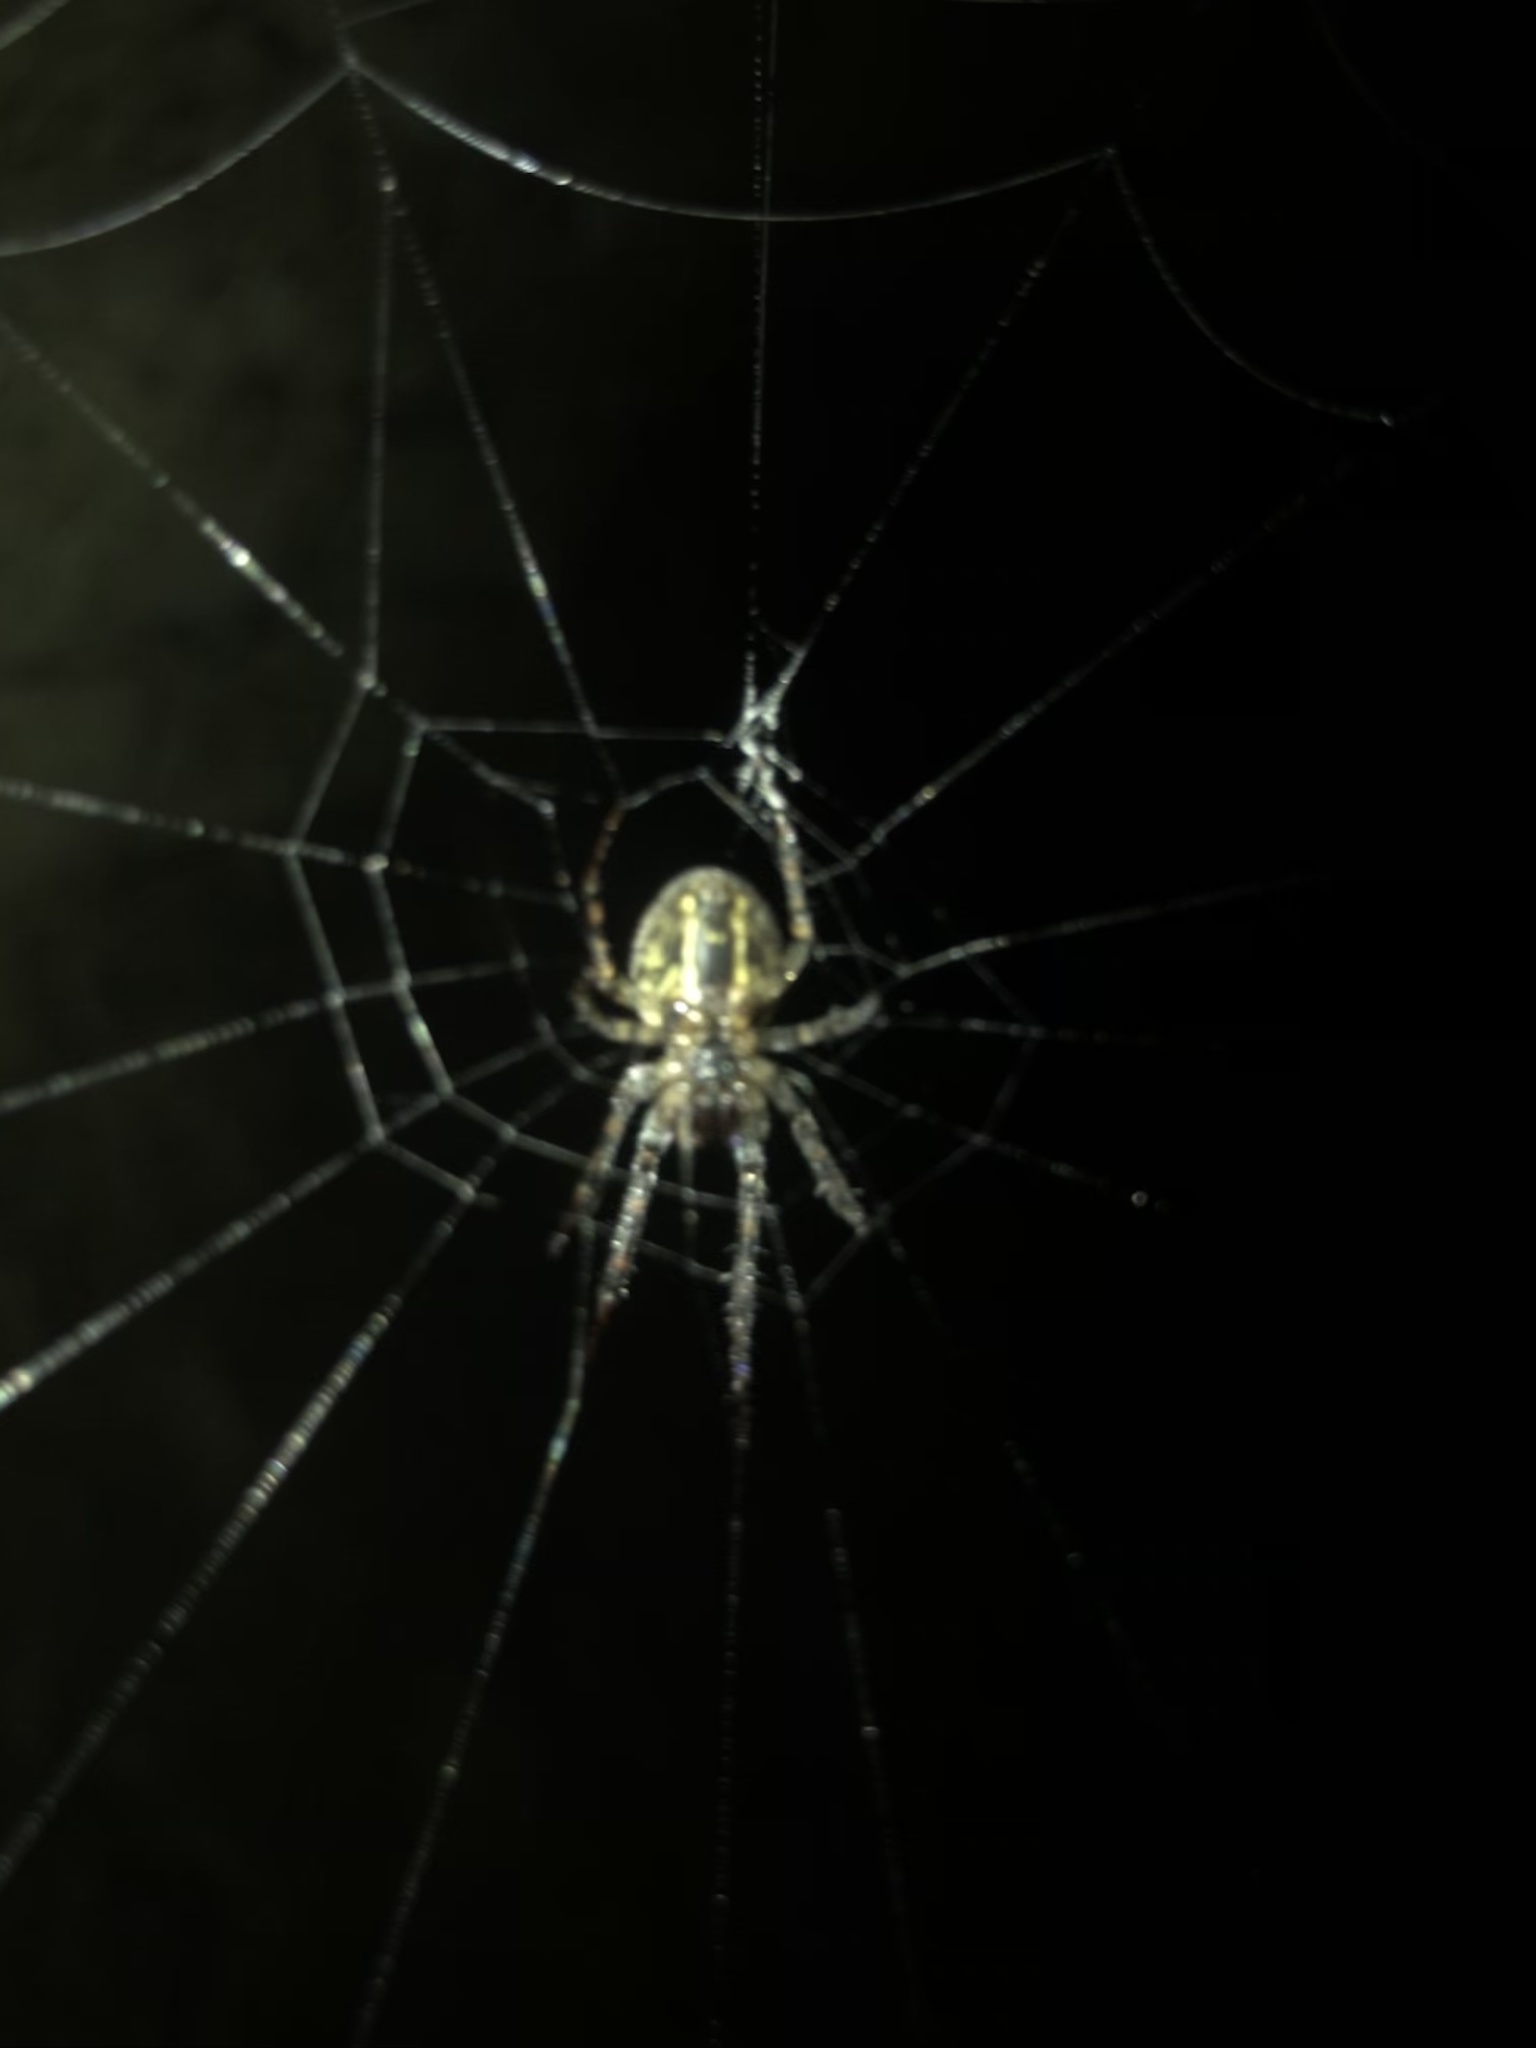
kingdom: Animalia
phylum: Arthropoda
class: Arachnida
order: Araneae
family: Tetragnathidae
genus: Metellina
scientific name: Metellina merianae
